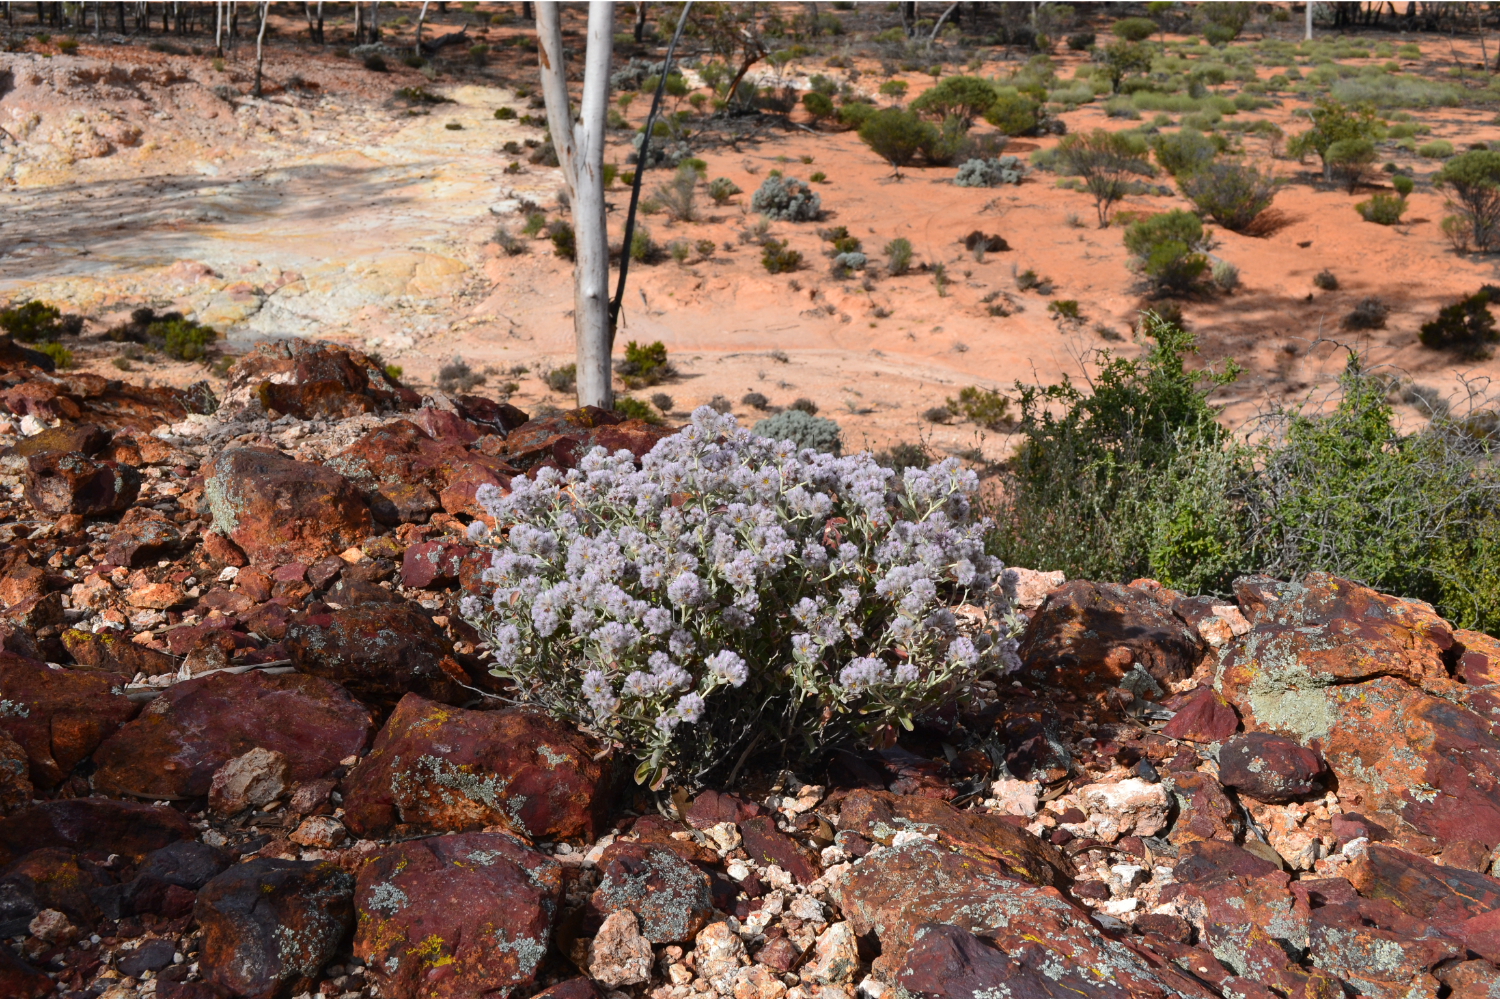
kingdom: Plantae
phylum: Tracheophyta
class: Magnoliopsida
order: Caryophyllales
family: Amaranthaceae
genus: Ptilotus
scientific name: Ptilotus obovatus
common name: Cottonbush
